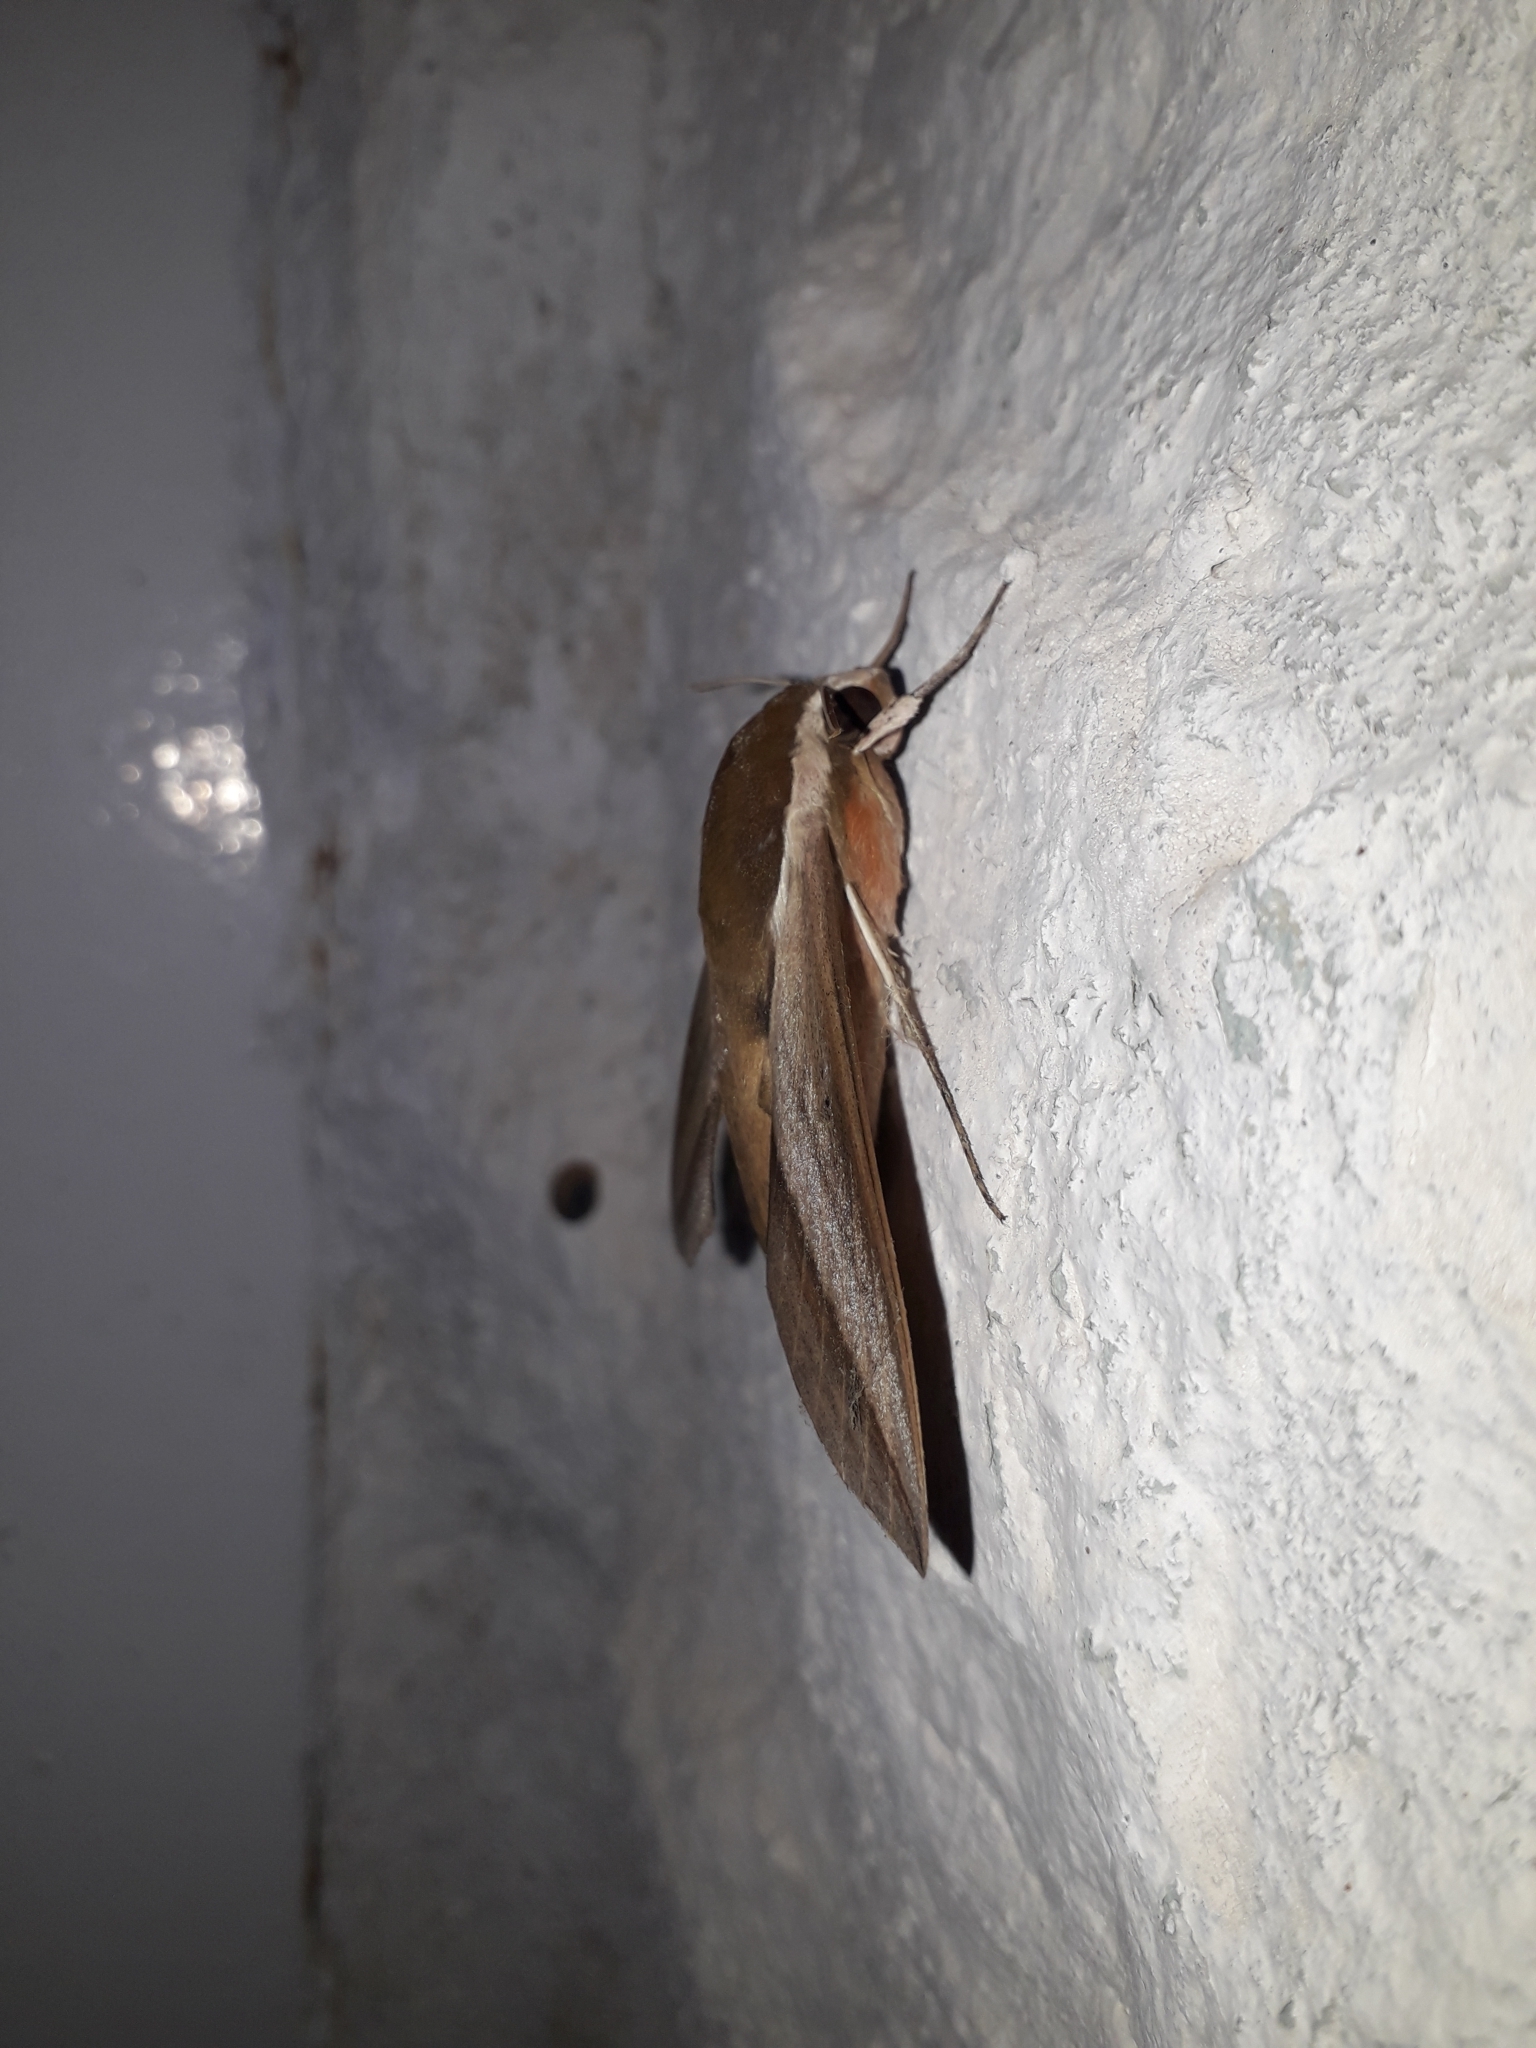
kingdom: Animalia
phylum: Arthropoda
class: Insecta
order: Lepidoptera
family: Sphingidae
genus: Theretra
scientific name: Theretra alecto
